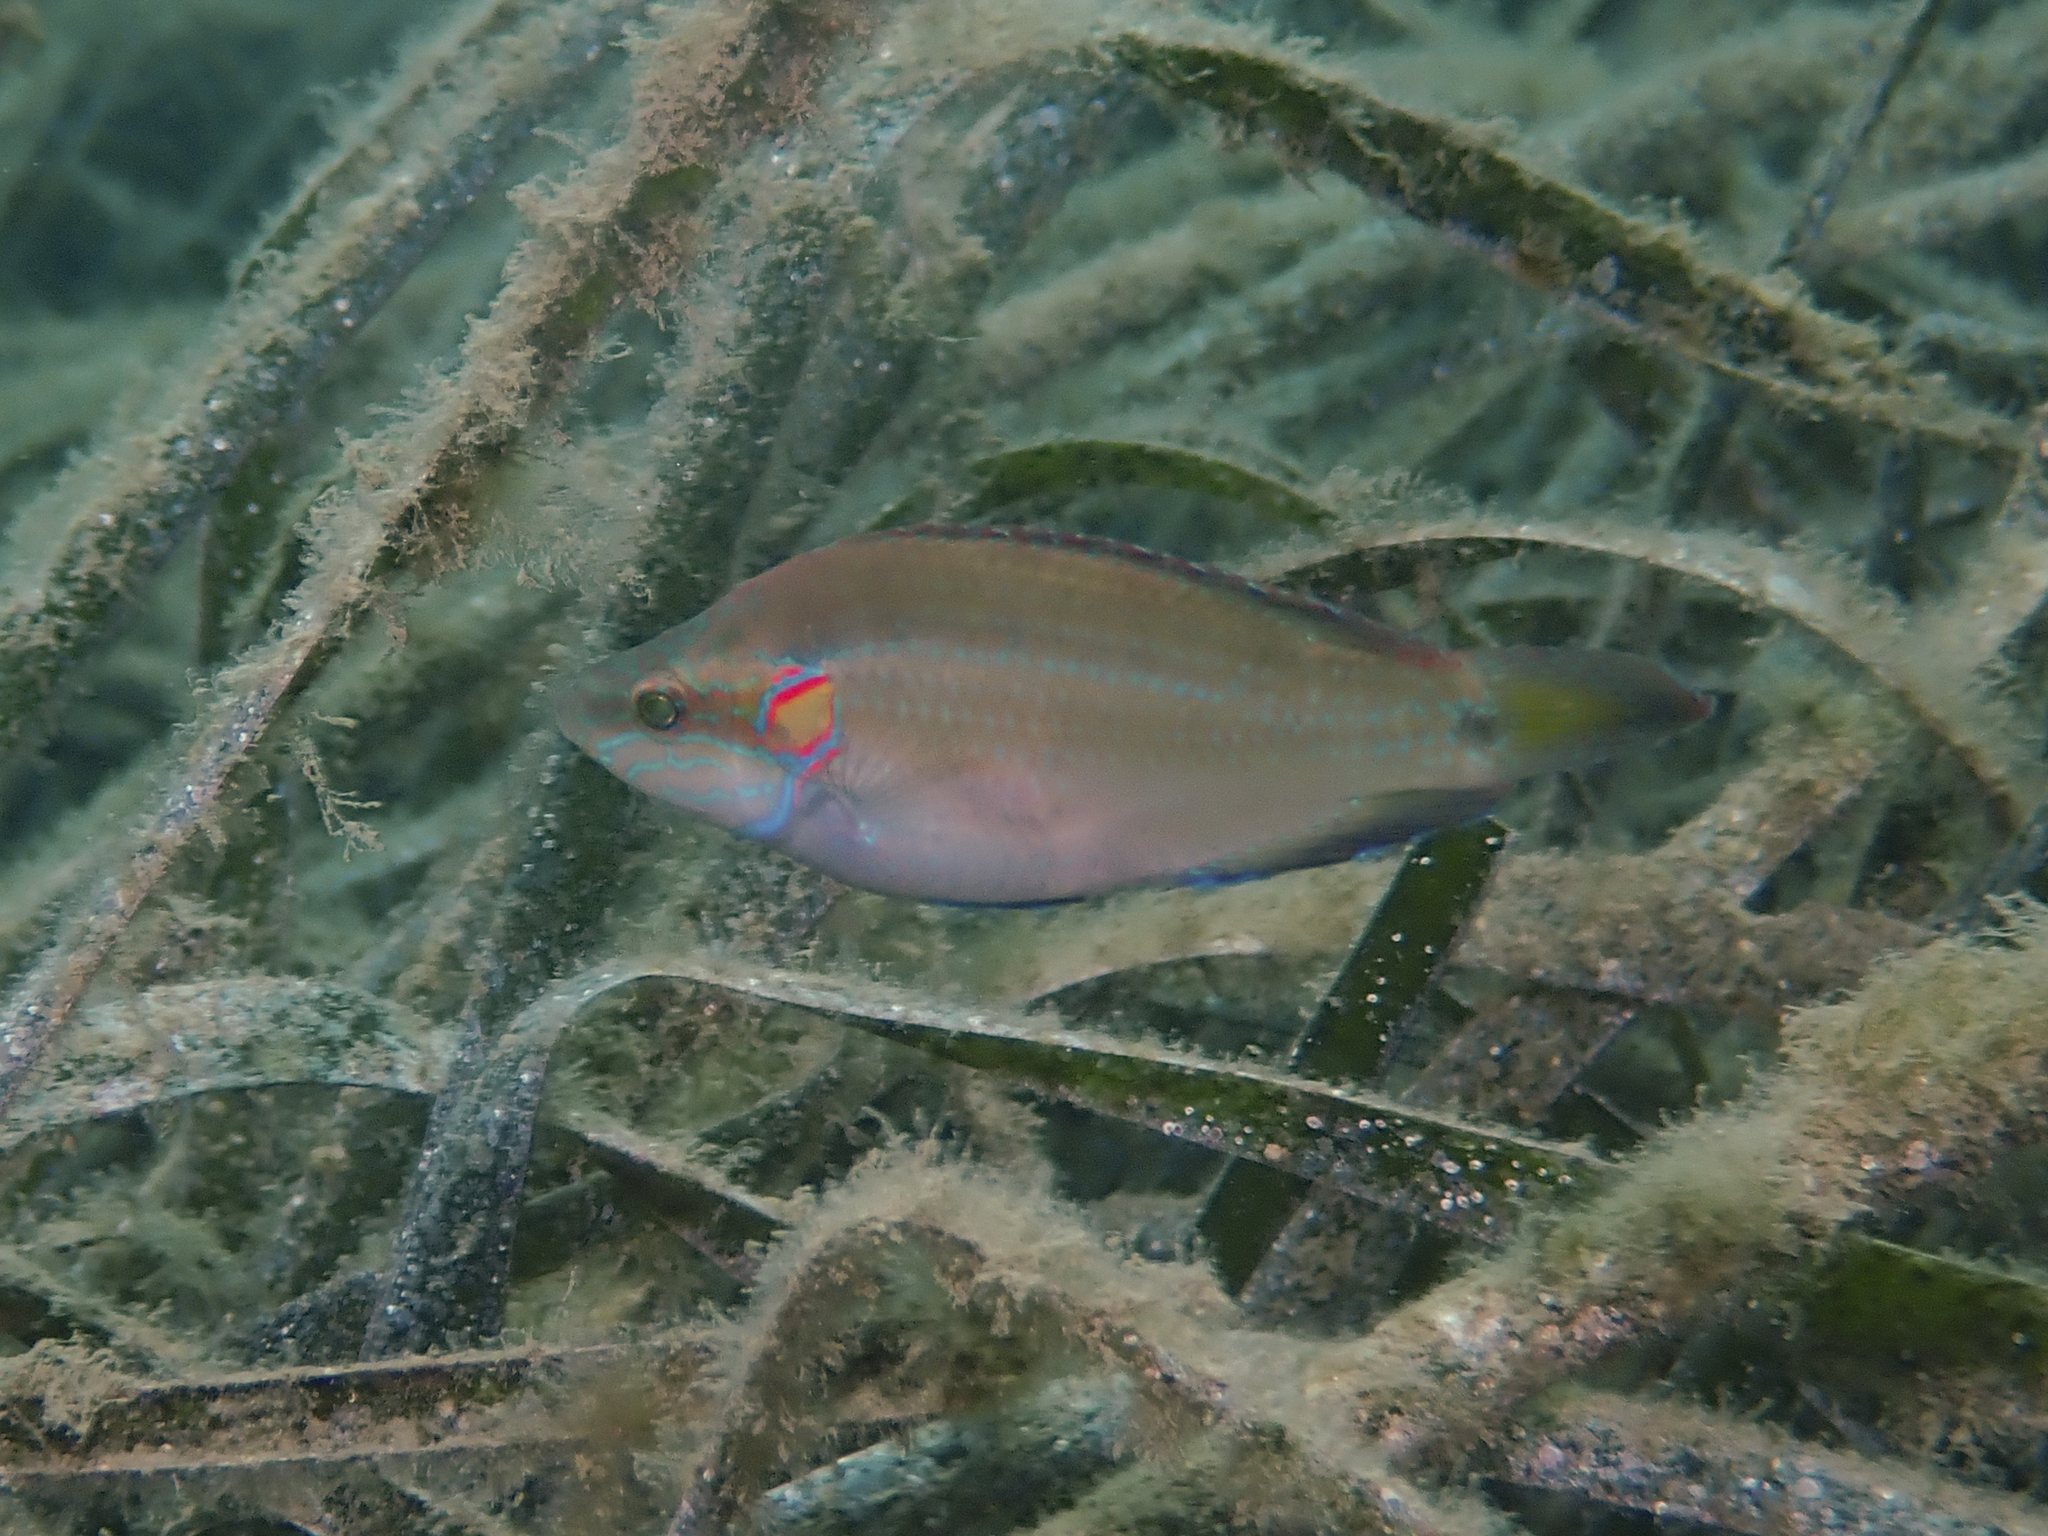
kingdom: Animalia
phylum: Chordata
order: Perciformes
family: Labridae
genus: Symphodus
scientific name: Symphodus ocellatus
